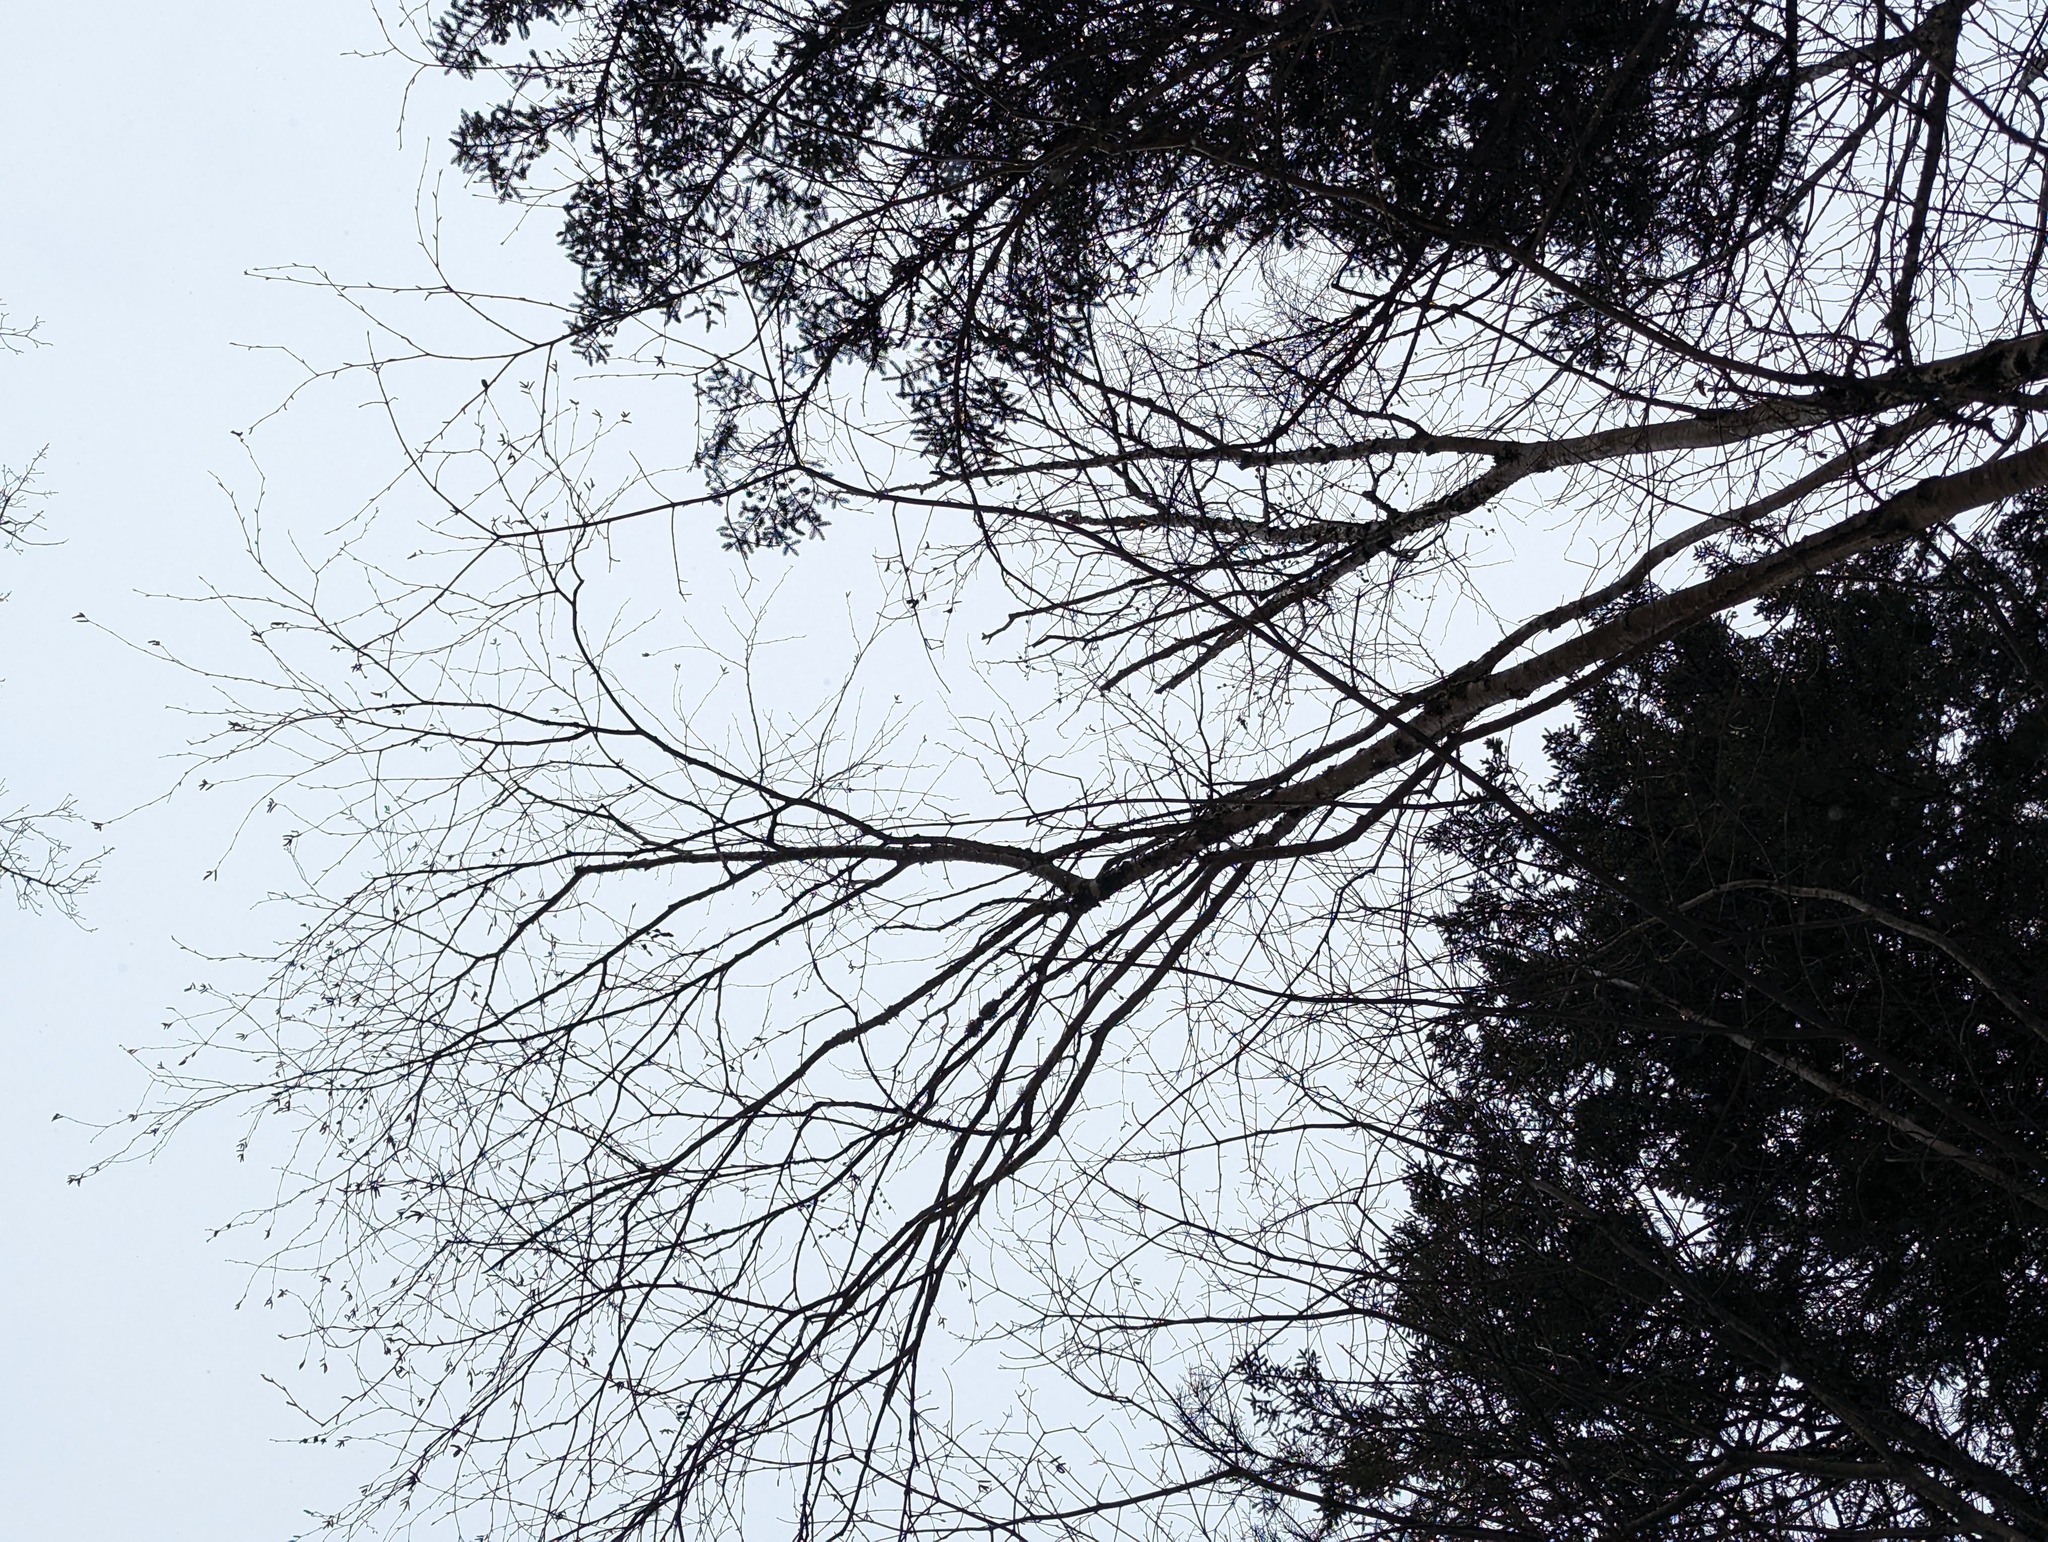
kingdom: Plantae
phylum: Tracheophyta
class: Magnoliopsida
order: Fagales
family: Betulaceae
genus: Betula
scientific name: Betula alleghaniensis
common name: Yellow birch
